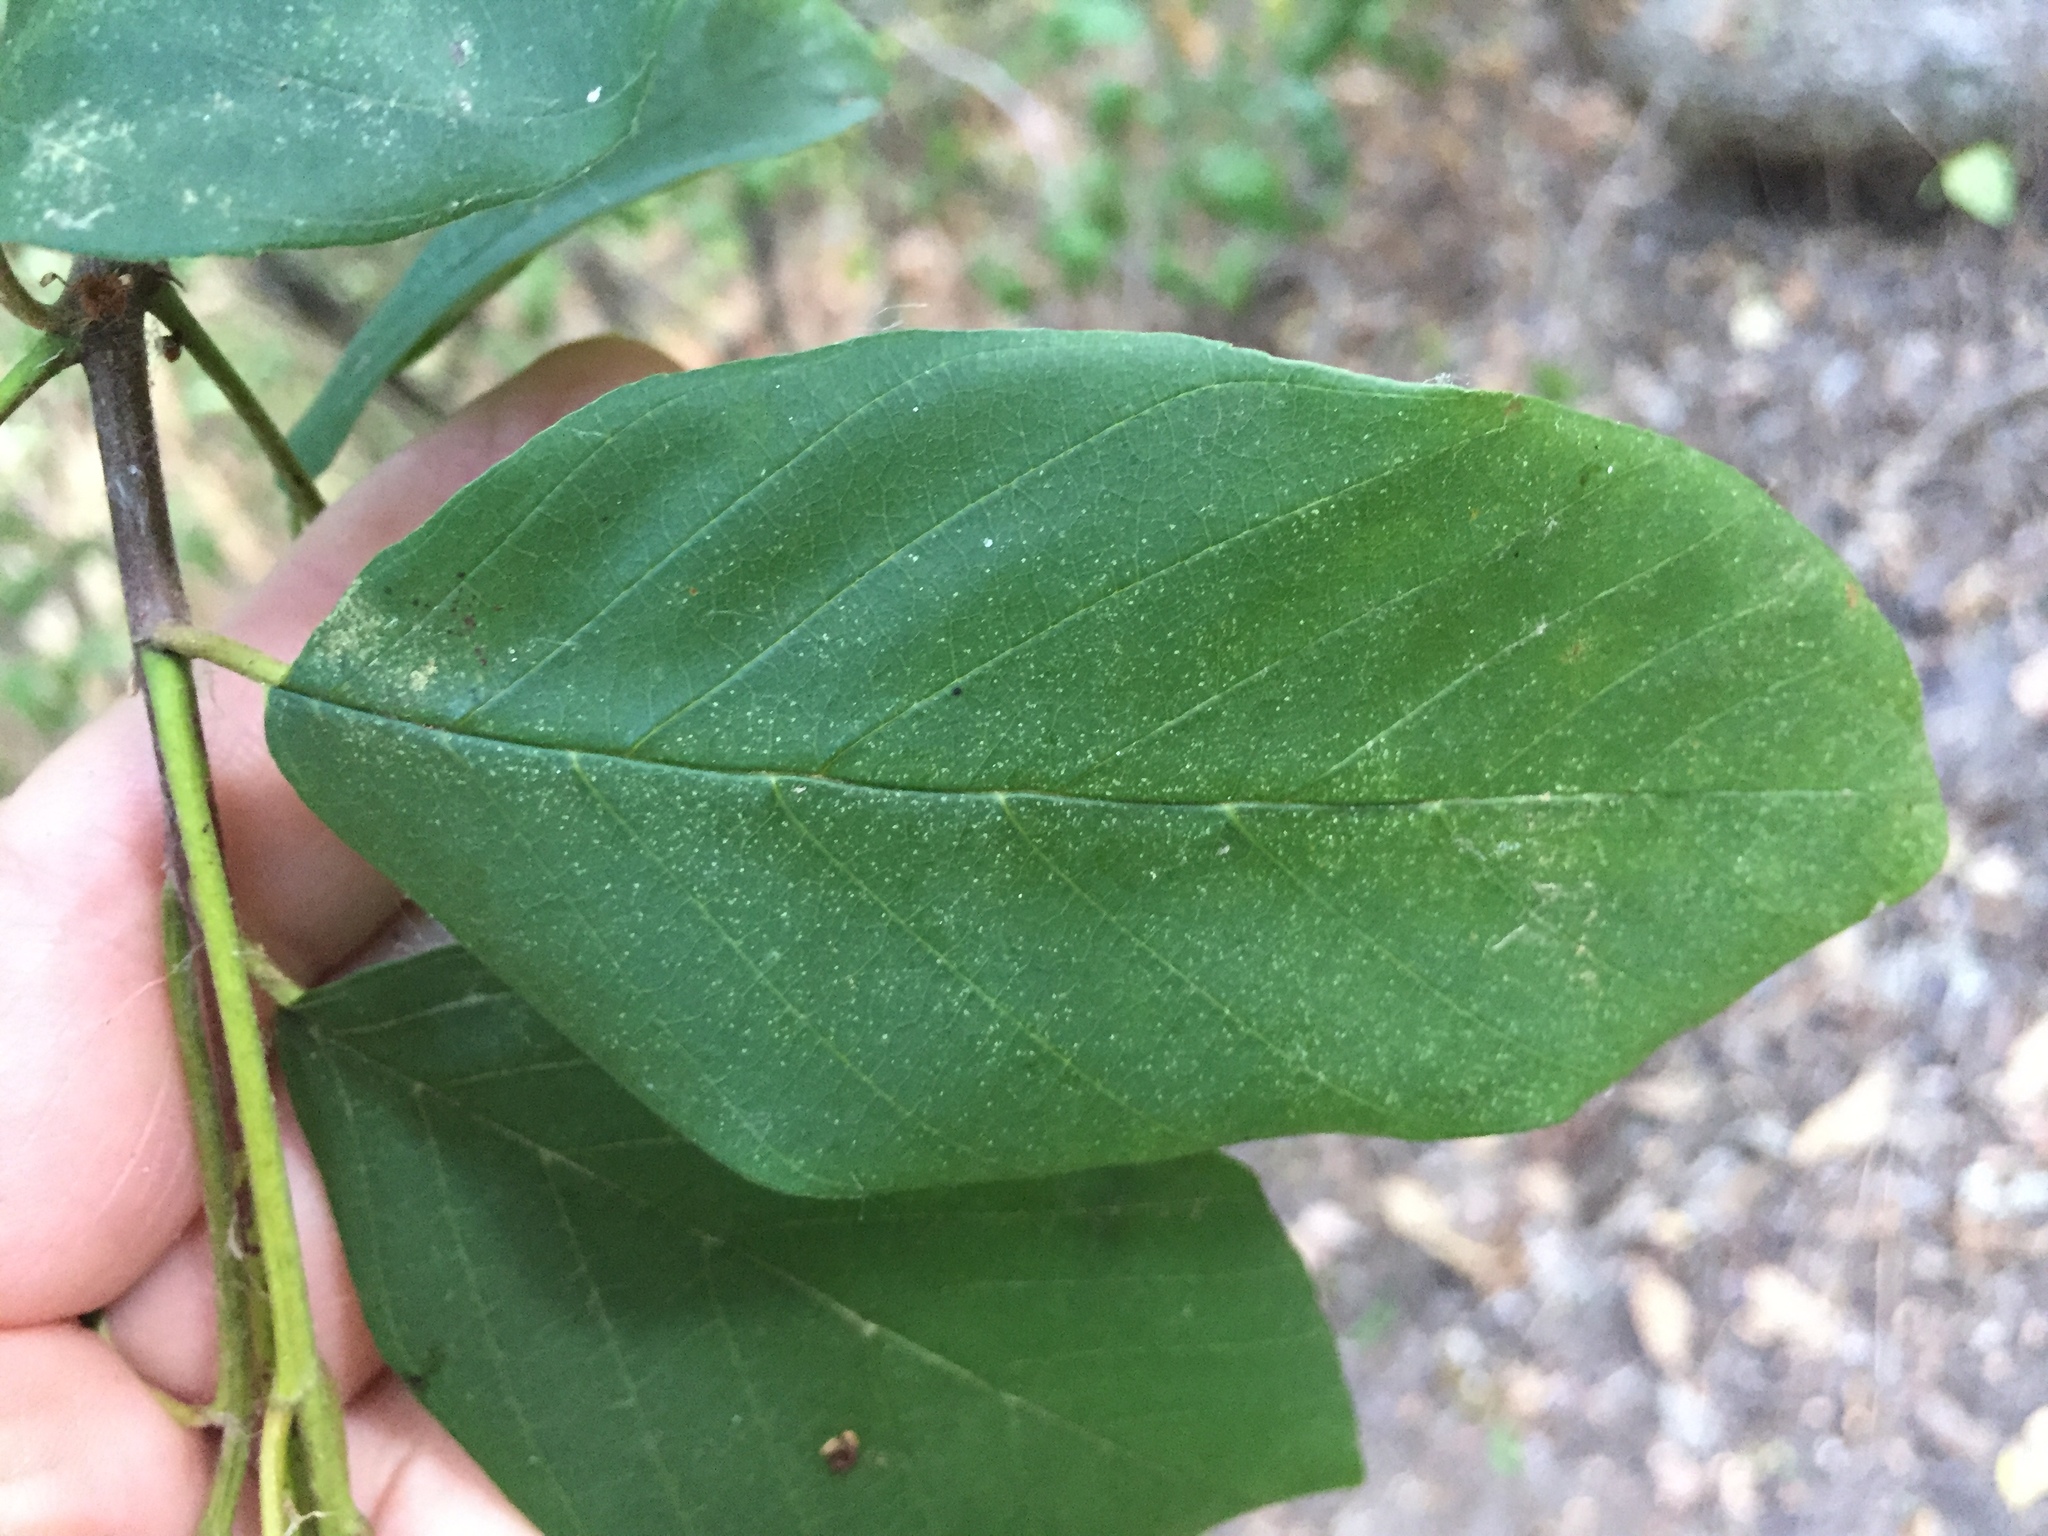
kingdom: Plantae
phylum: Tracheophyta
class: Magnoliopsida
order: Rosales
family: Rhamnaceae
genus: Frangula
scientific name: Frangula caroliniana
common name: Carolina buckthorn
